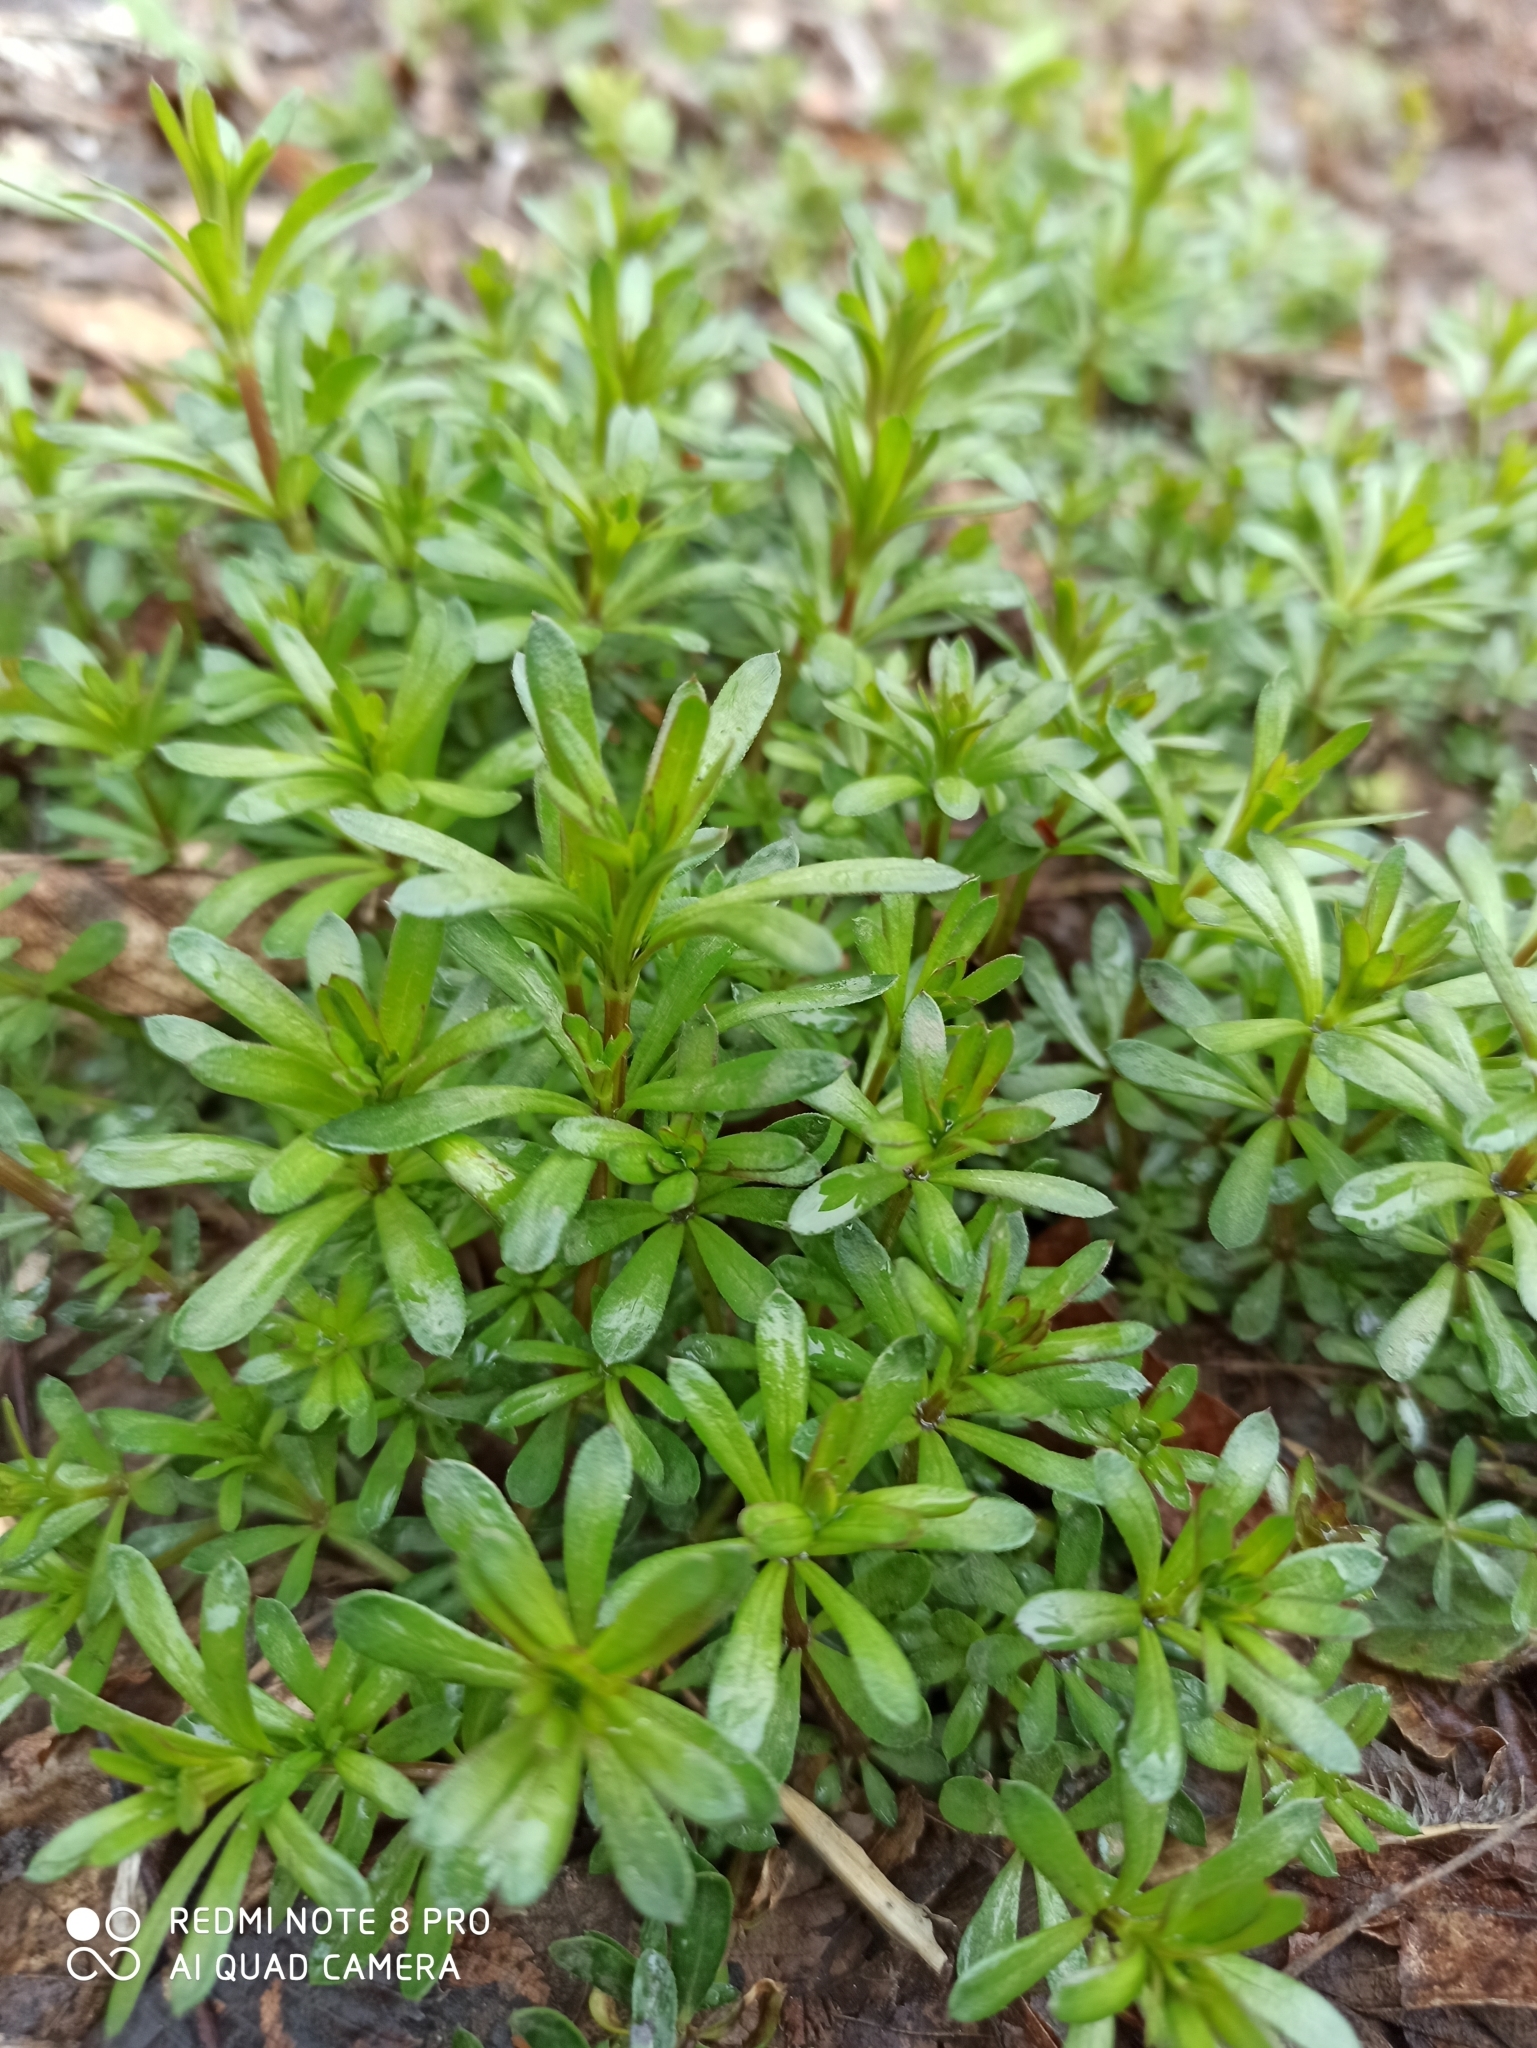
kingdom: Plantae
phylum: Tracheophyta
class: Magnoliopsida
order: Gentianales
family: Rubiaceae
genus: Galium
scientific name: Galium mollugo
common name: Hedge bedstraw
